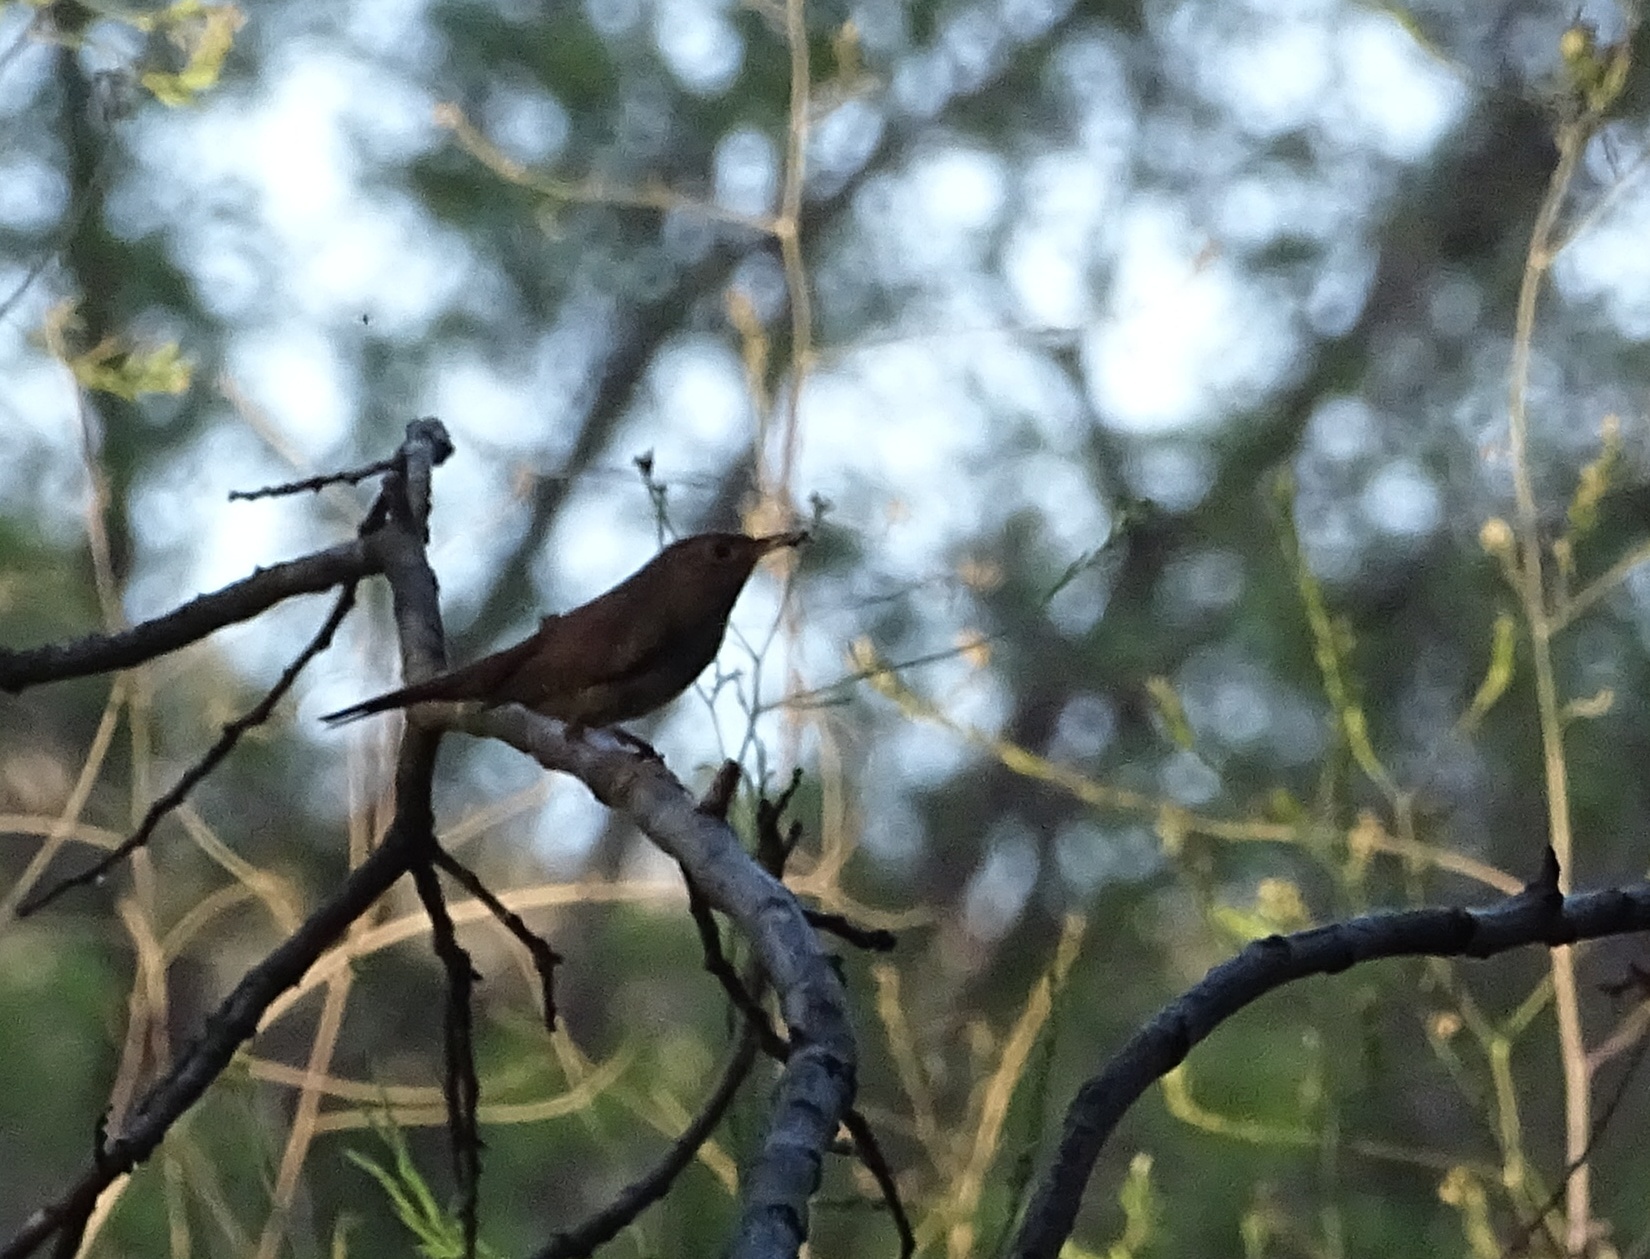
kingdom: Animalia
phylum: Chordata
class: Aves
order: Passeriformes
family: Troglodytidae
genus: Troglodytes
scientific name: Troglodytes aedon
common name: House wren
